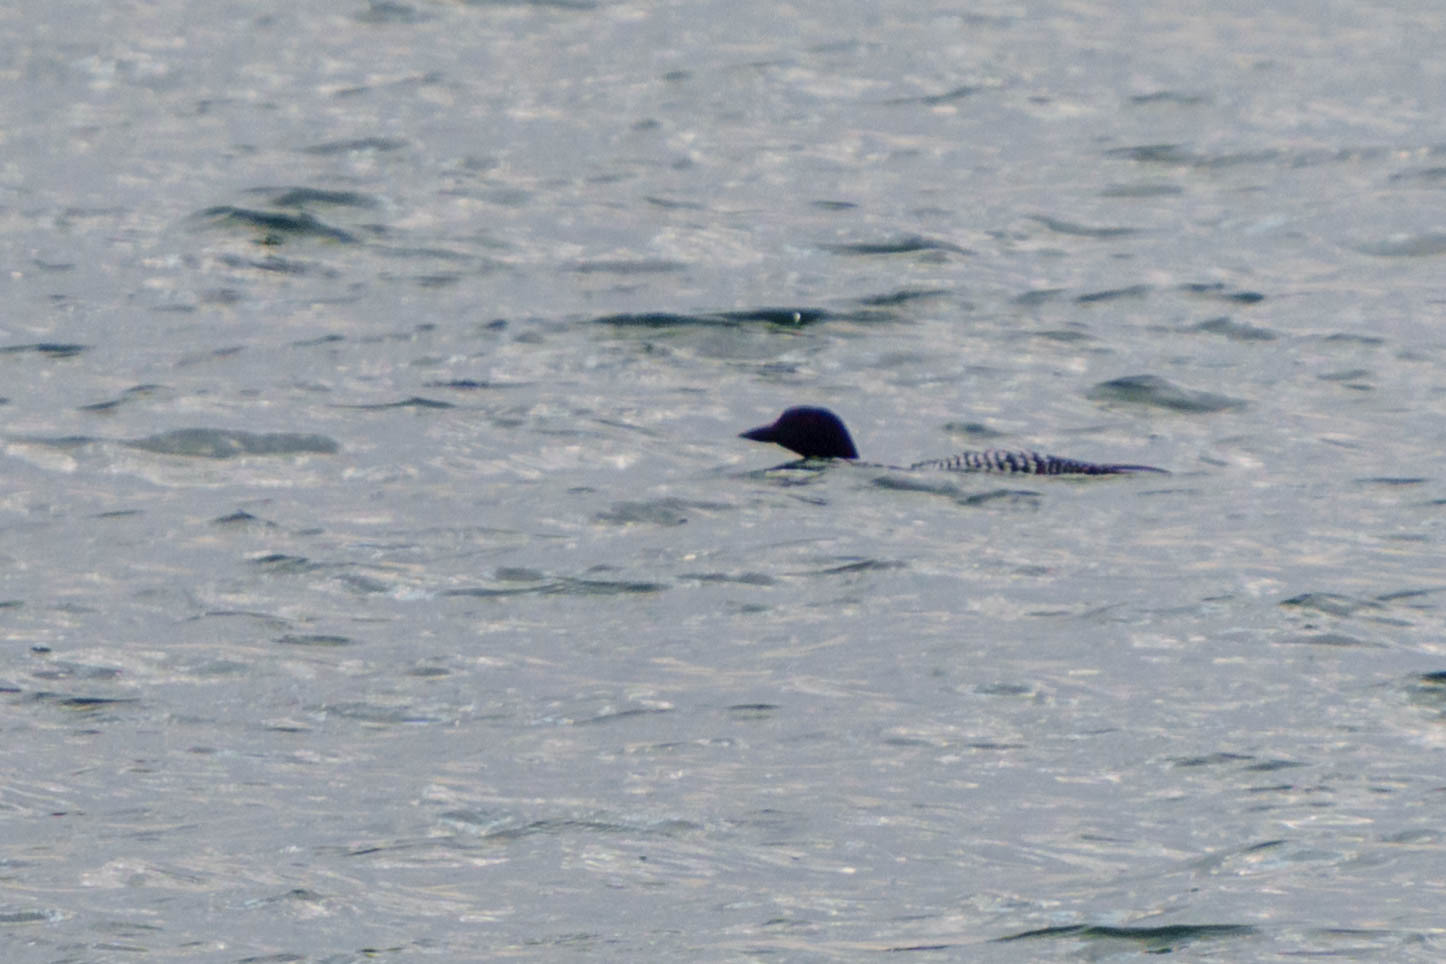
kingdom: Animalia
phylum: Chordata
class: Aves
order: Gaviiformes
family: Gaviidae
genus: Gavia
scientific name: Gavia immer
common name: Common loon
